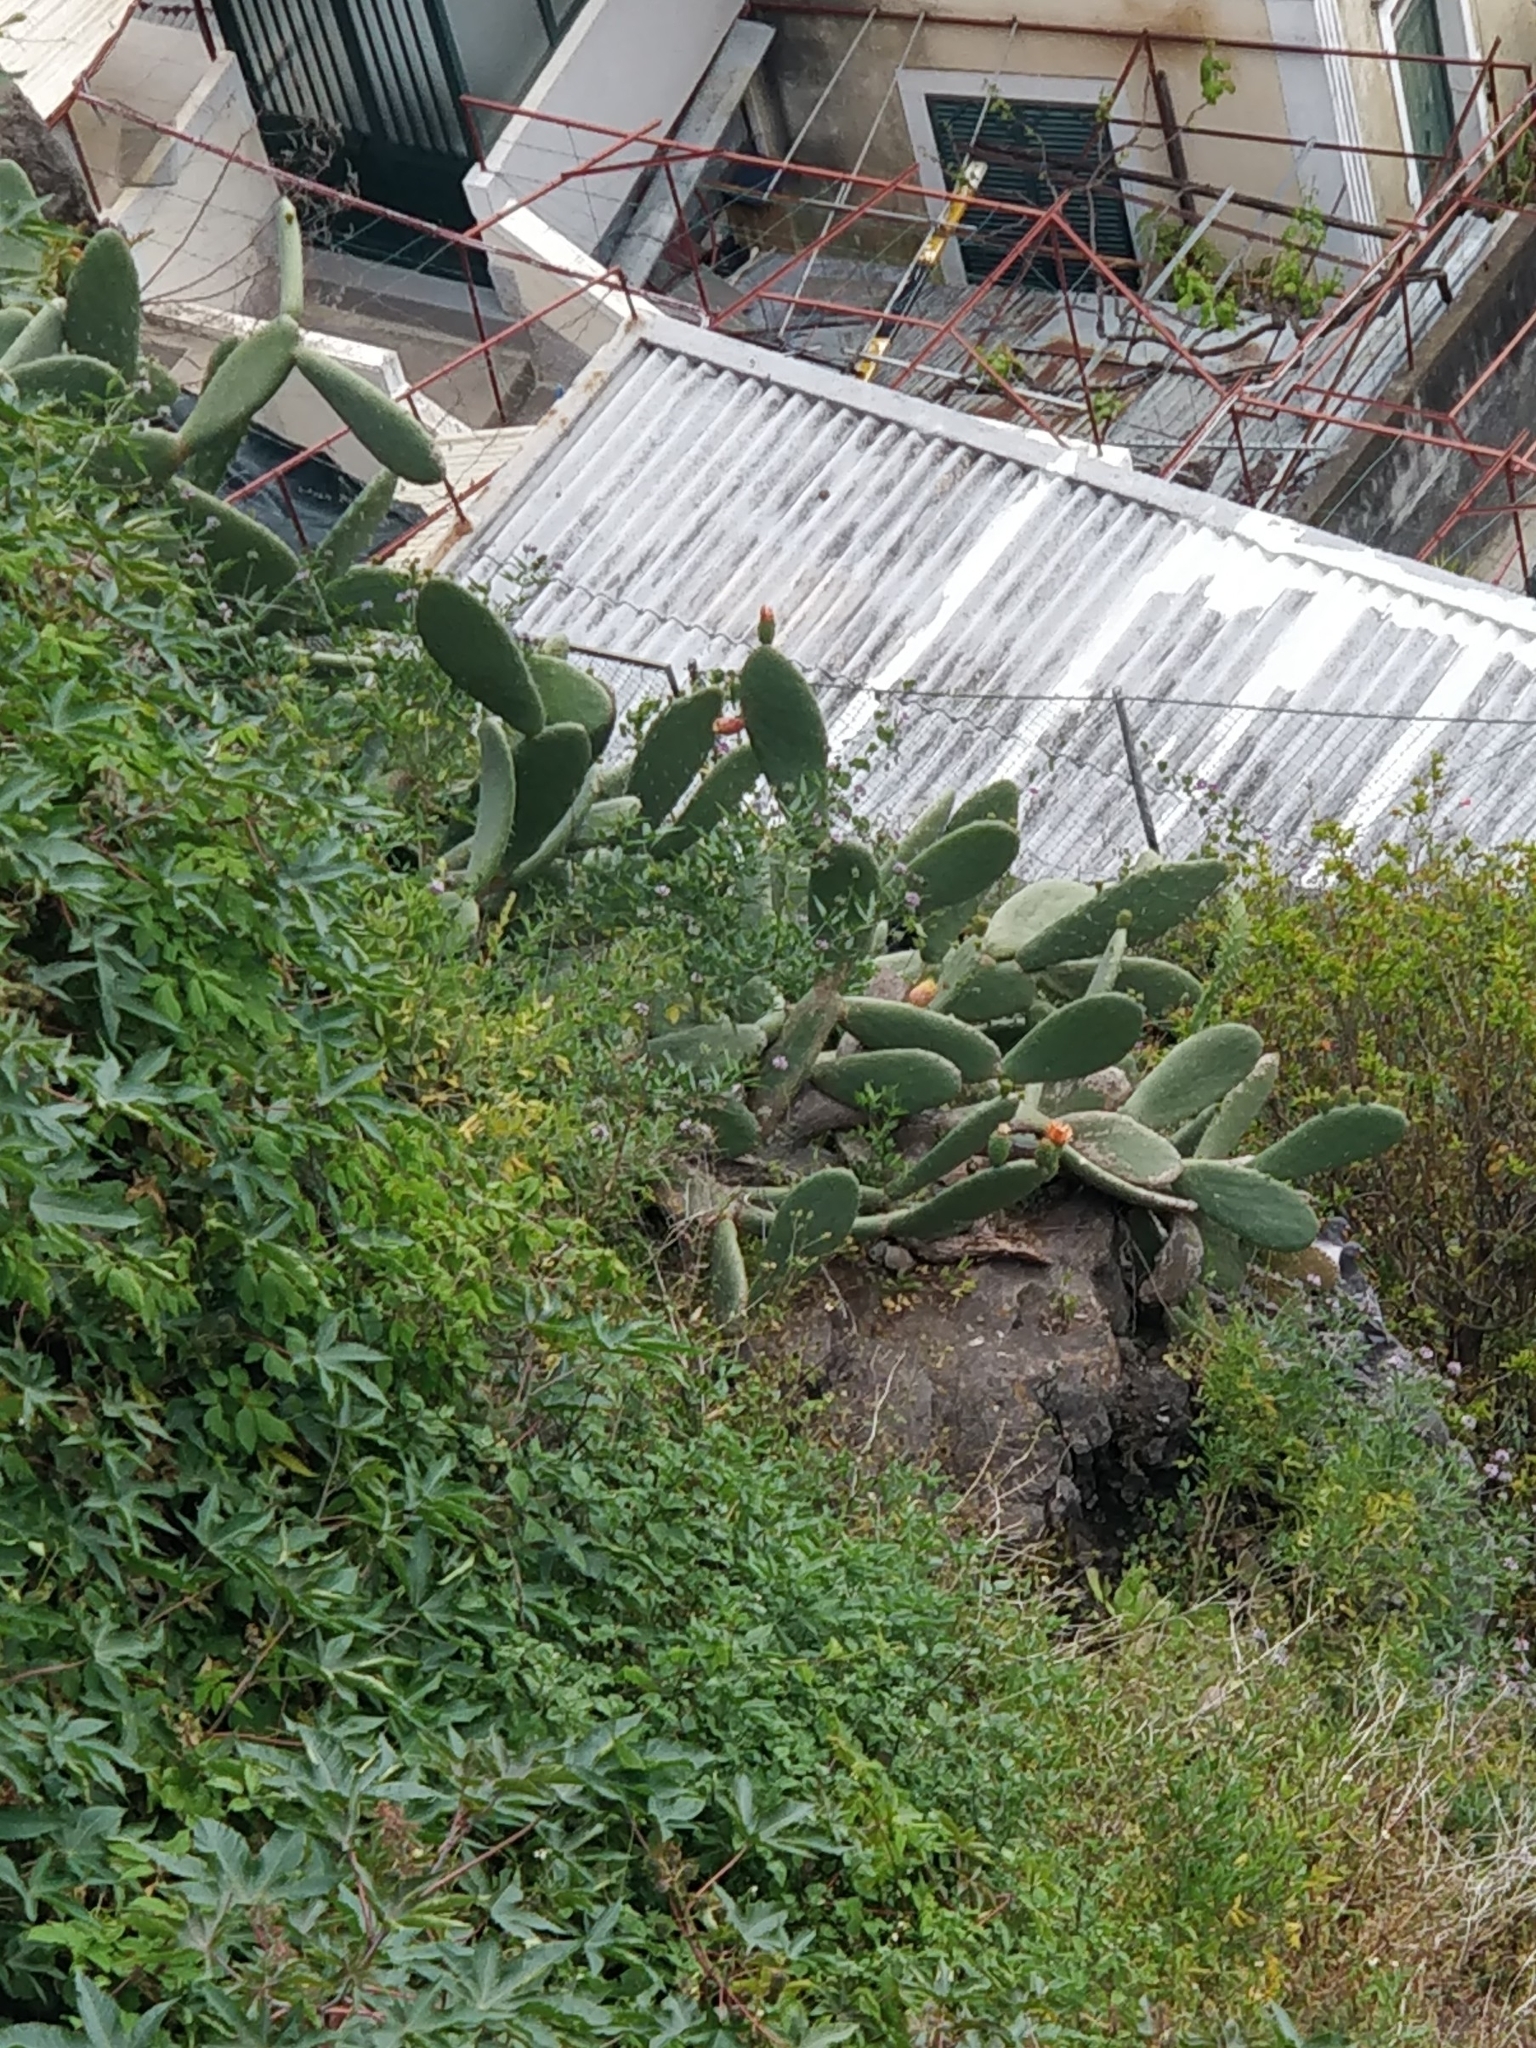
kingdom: Plantae
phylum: Tracheophyta
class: Magnoliopsida
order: Caryophyllales
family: Cactaceae
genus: Opuntia
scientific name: Opuntia ficus-indica
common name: Barbary fig
